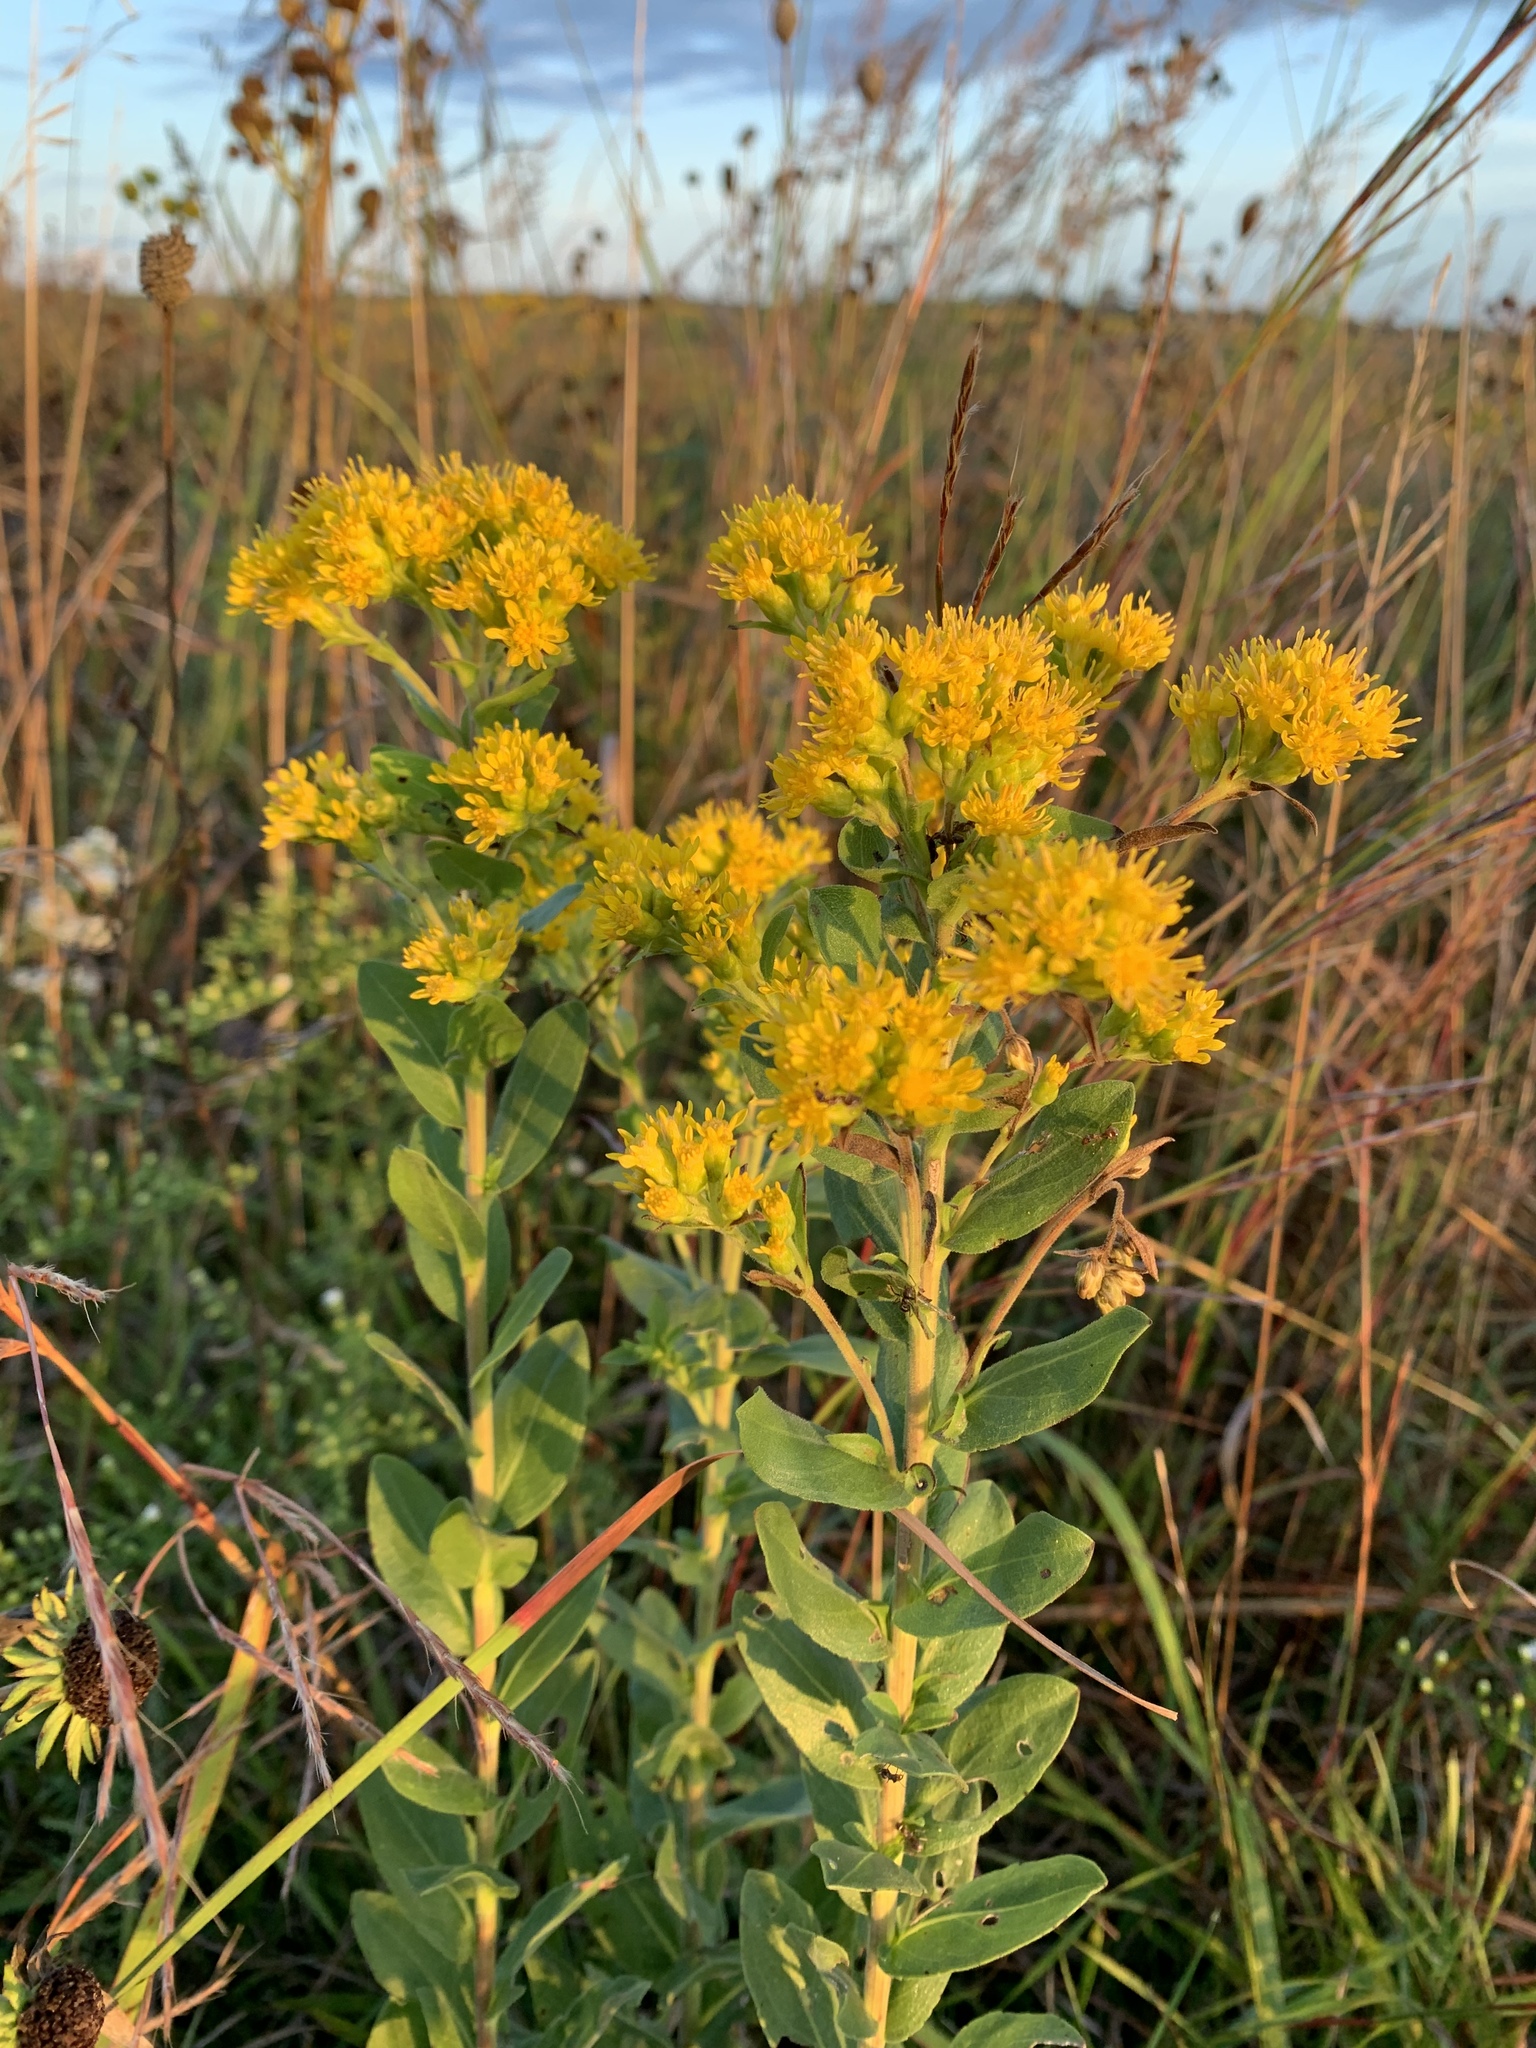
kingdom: Plantae
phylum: Tracheophyta
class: Magnoliopsida
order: Asterales
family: Asteraceae
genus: Solidago
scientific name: Solidago rigida
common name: Rigid goldenrod
